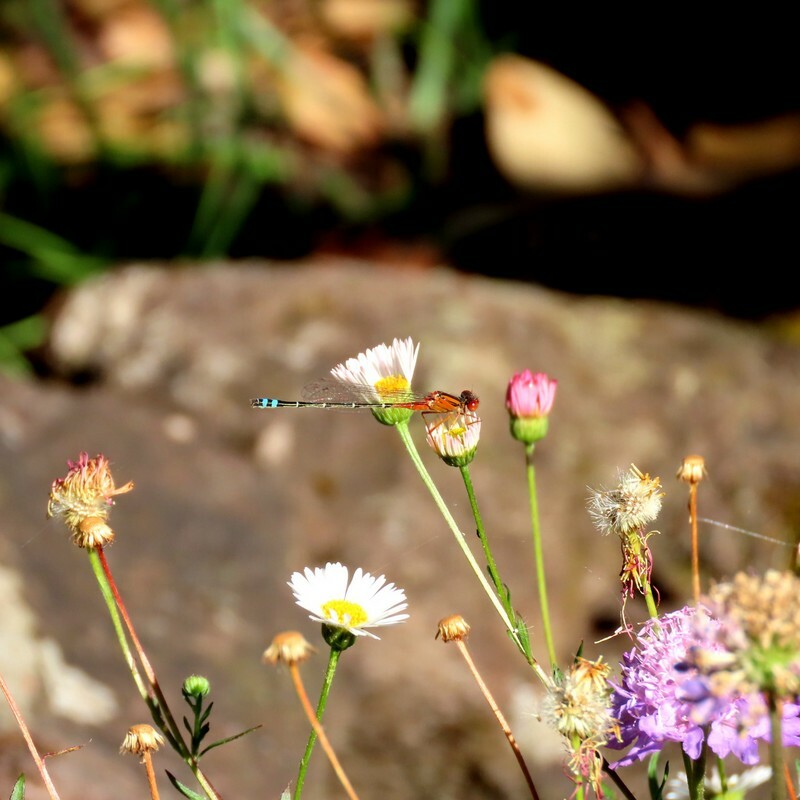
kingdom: Animalia
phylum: Arthropoda
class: Insecta
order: Odonata
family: Coenagrionidae
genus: Xanthagrion
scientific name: Xanthagrion erythroneurum
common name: Red and blue damsel
